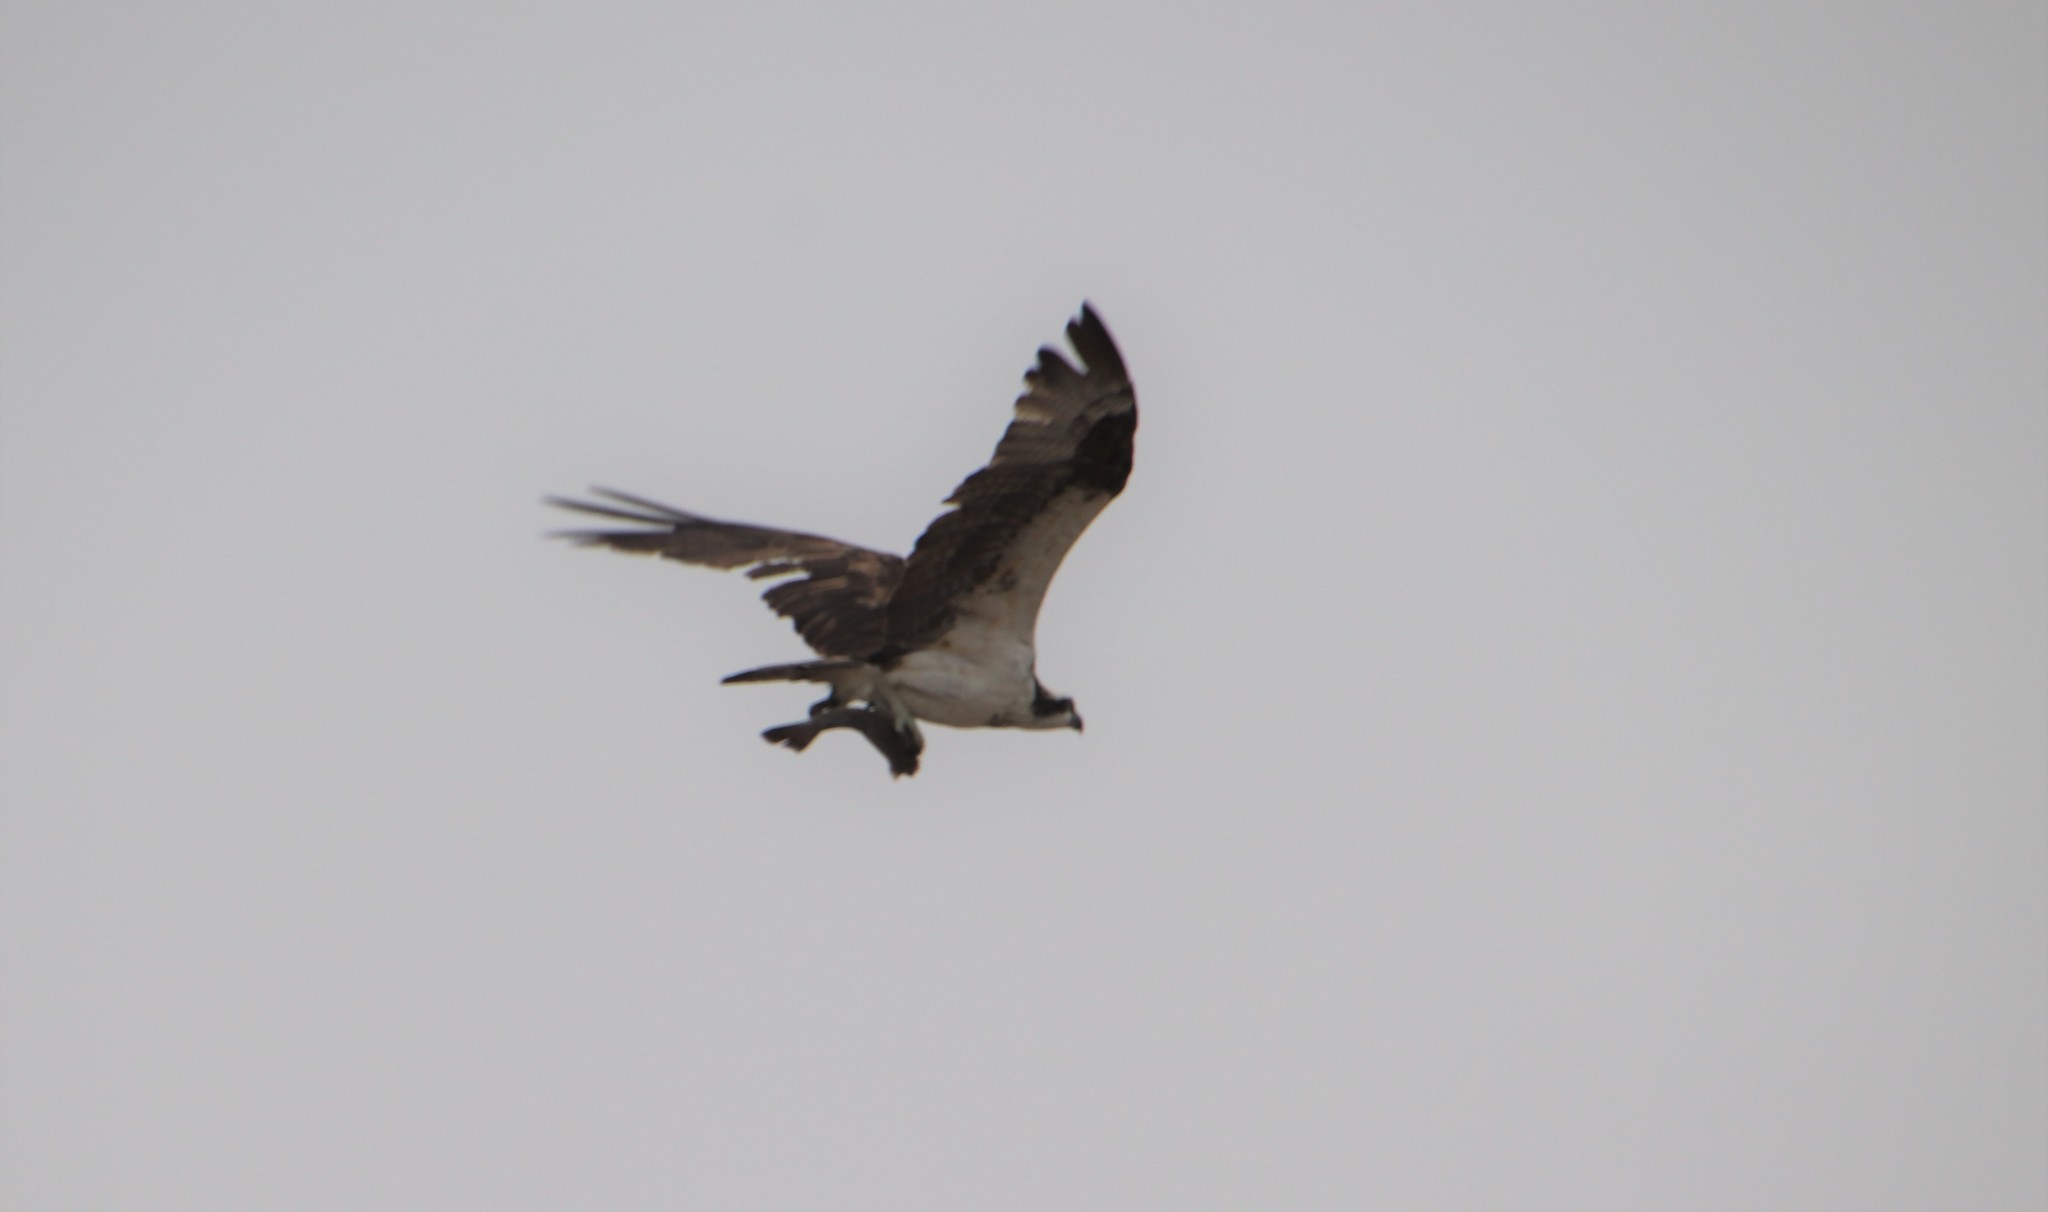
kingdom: Animalia
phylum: Chordata
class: Aves
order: Accipitriformes
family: Pandionidae
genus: Pandion
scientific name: Pandion haliaetus
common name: Osprey
